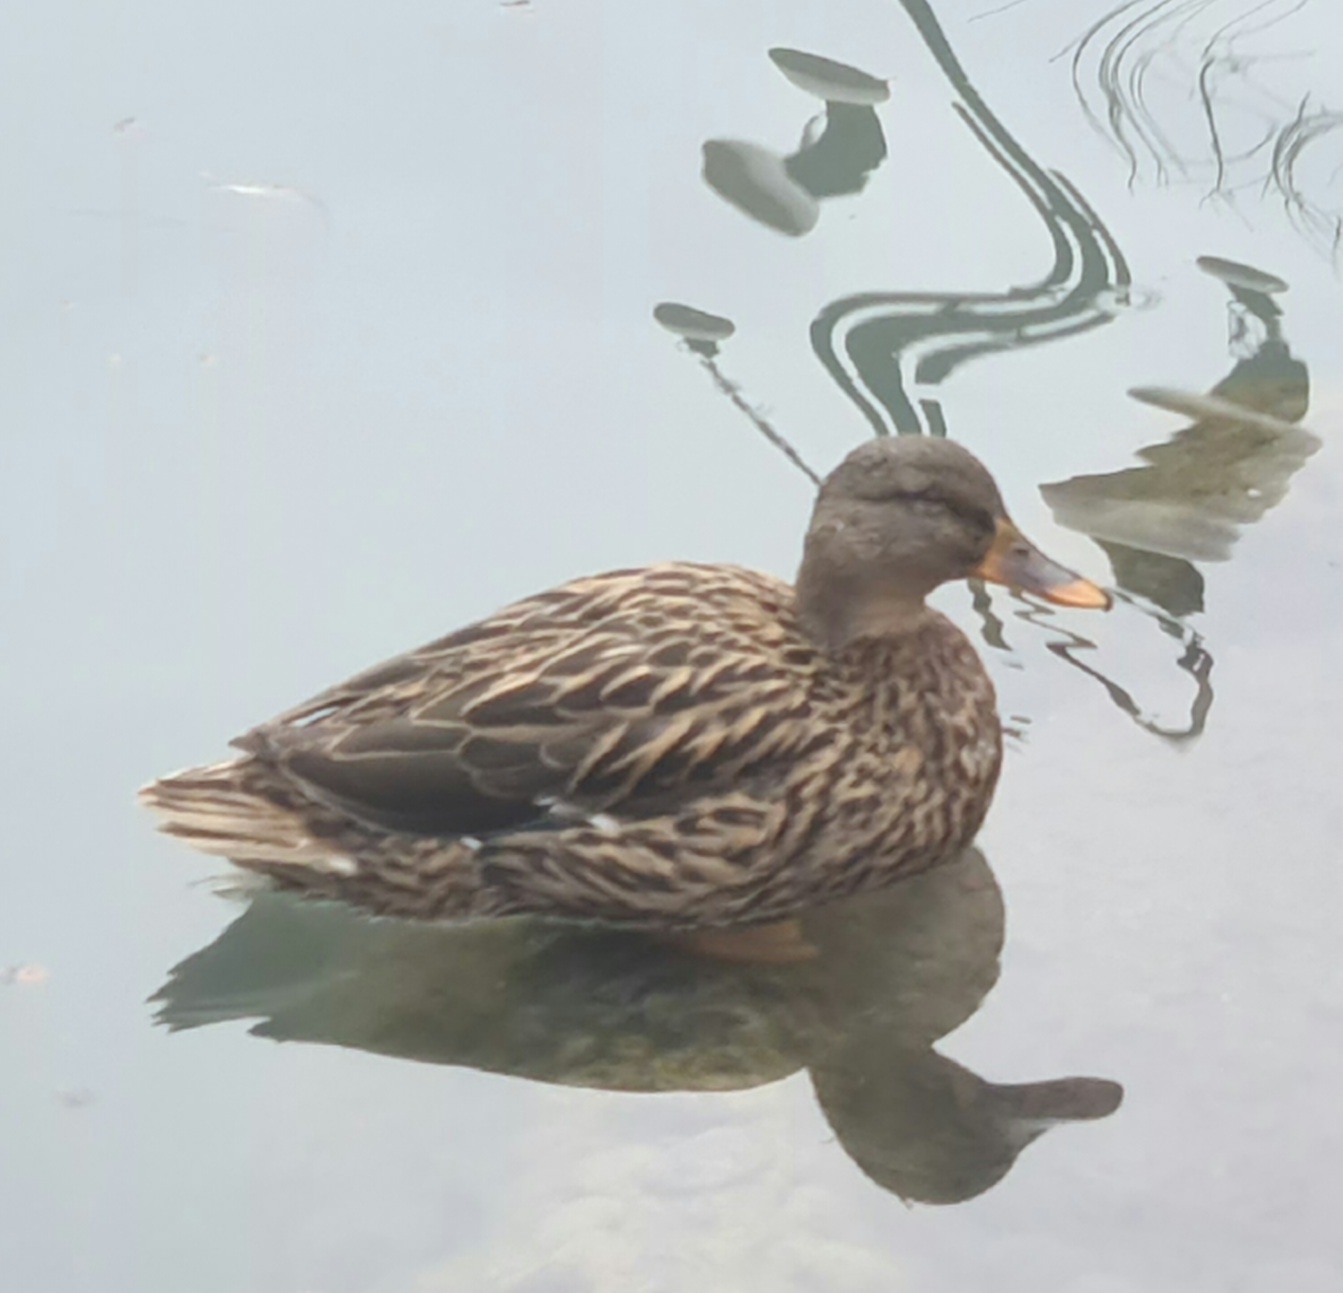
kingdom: Animalia
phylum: Chordata
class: Aves
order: Anseriformes
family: Anatidae
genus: Anas
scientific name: Anas platyrhynchos
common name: Mallard
